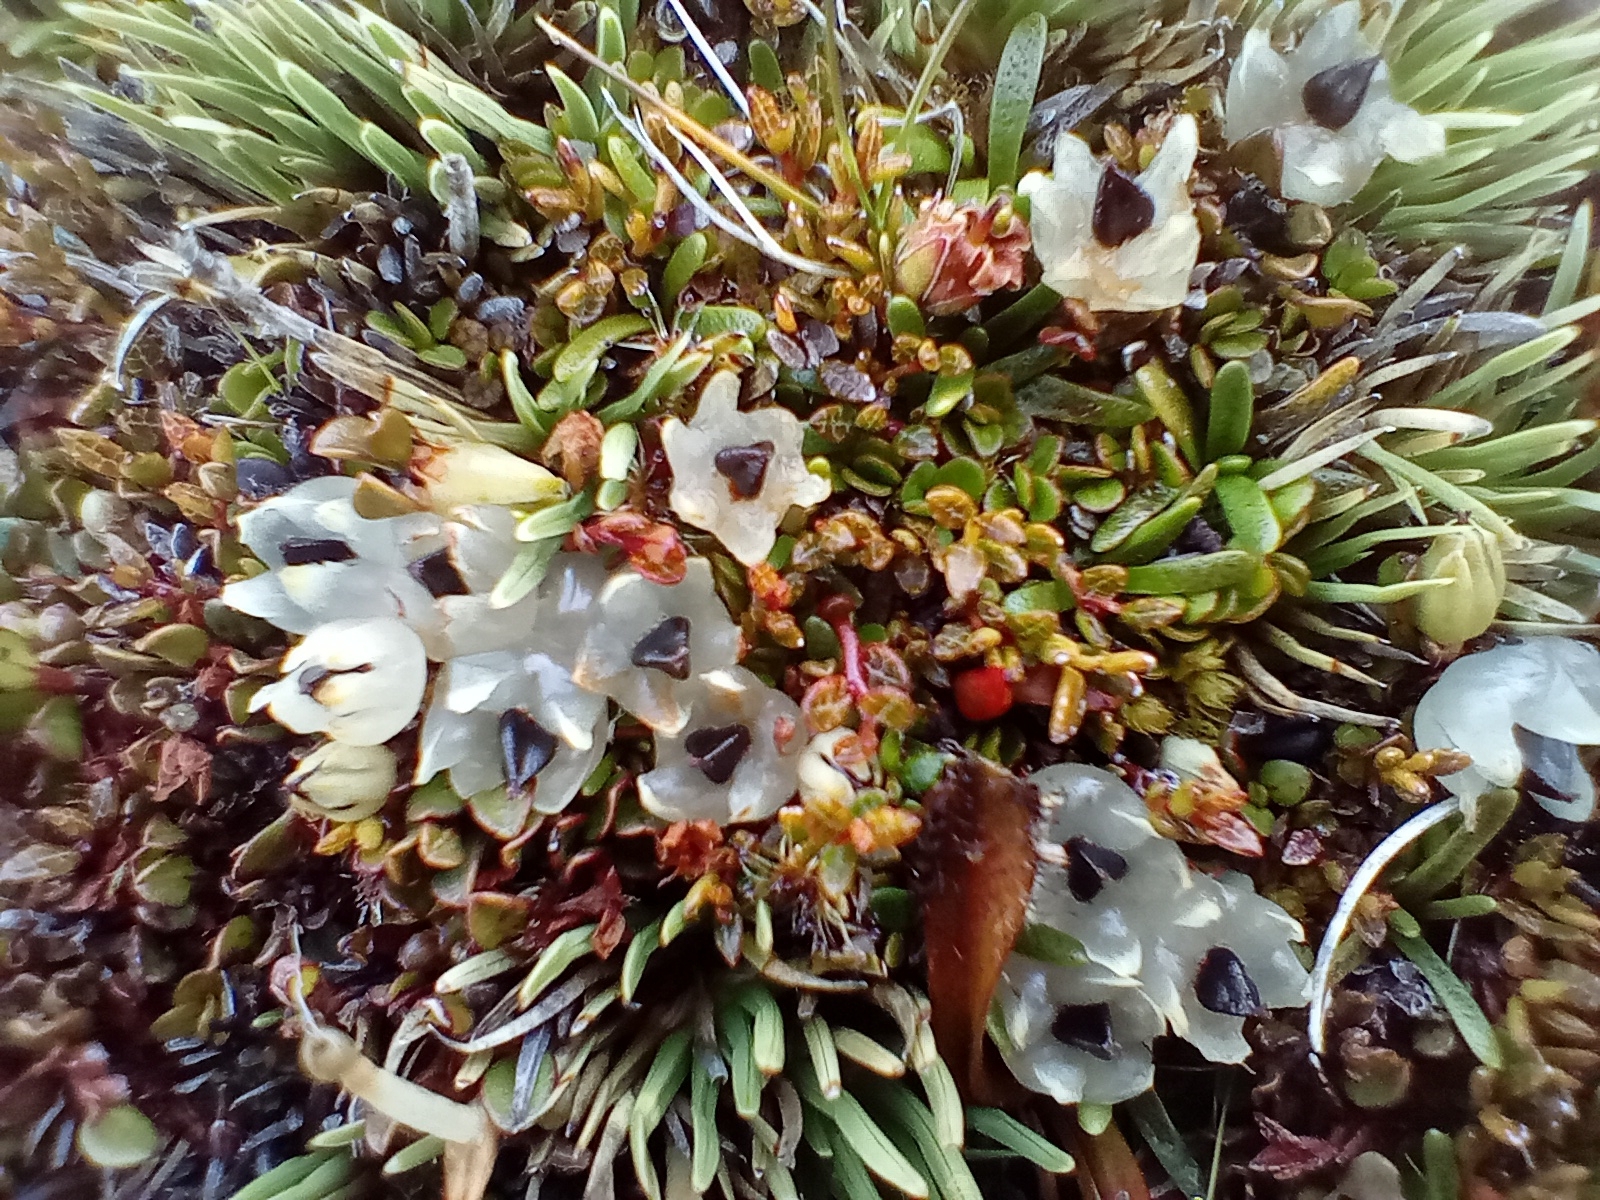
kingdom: Plantae
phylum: Tracheophyta
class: Magnoliopsida
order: Caryophyllales
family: Polygonaceae
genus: Muehlenbeckia
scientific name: Muehlenbeckia axillaris
